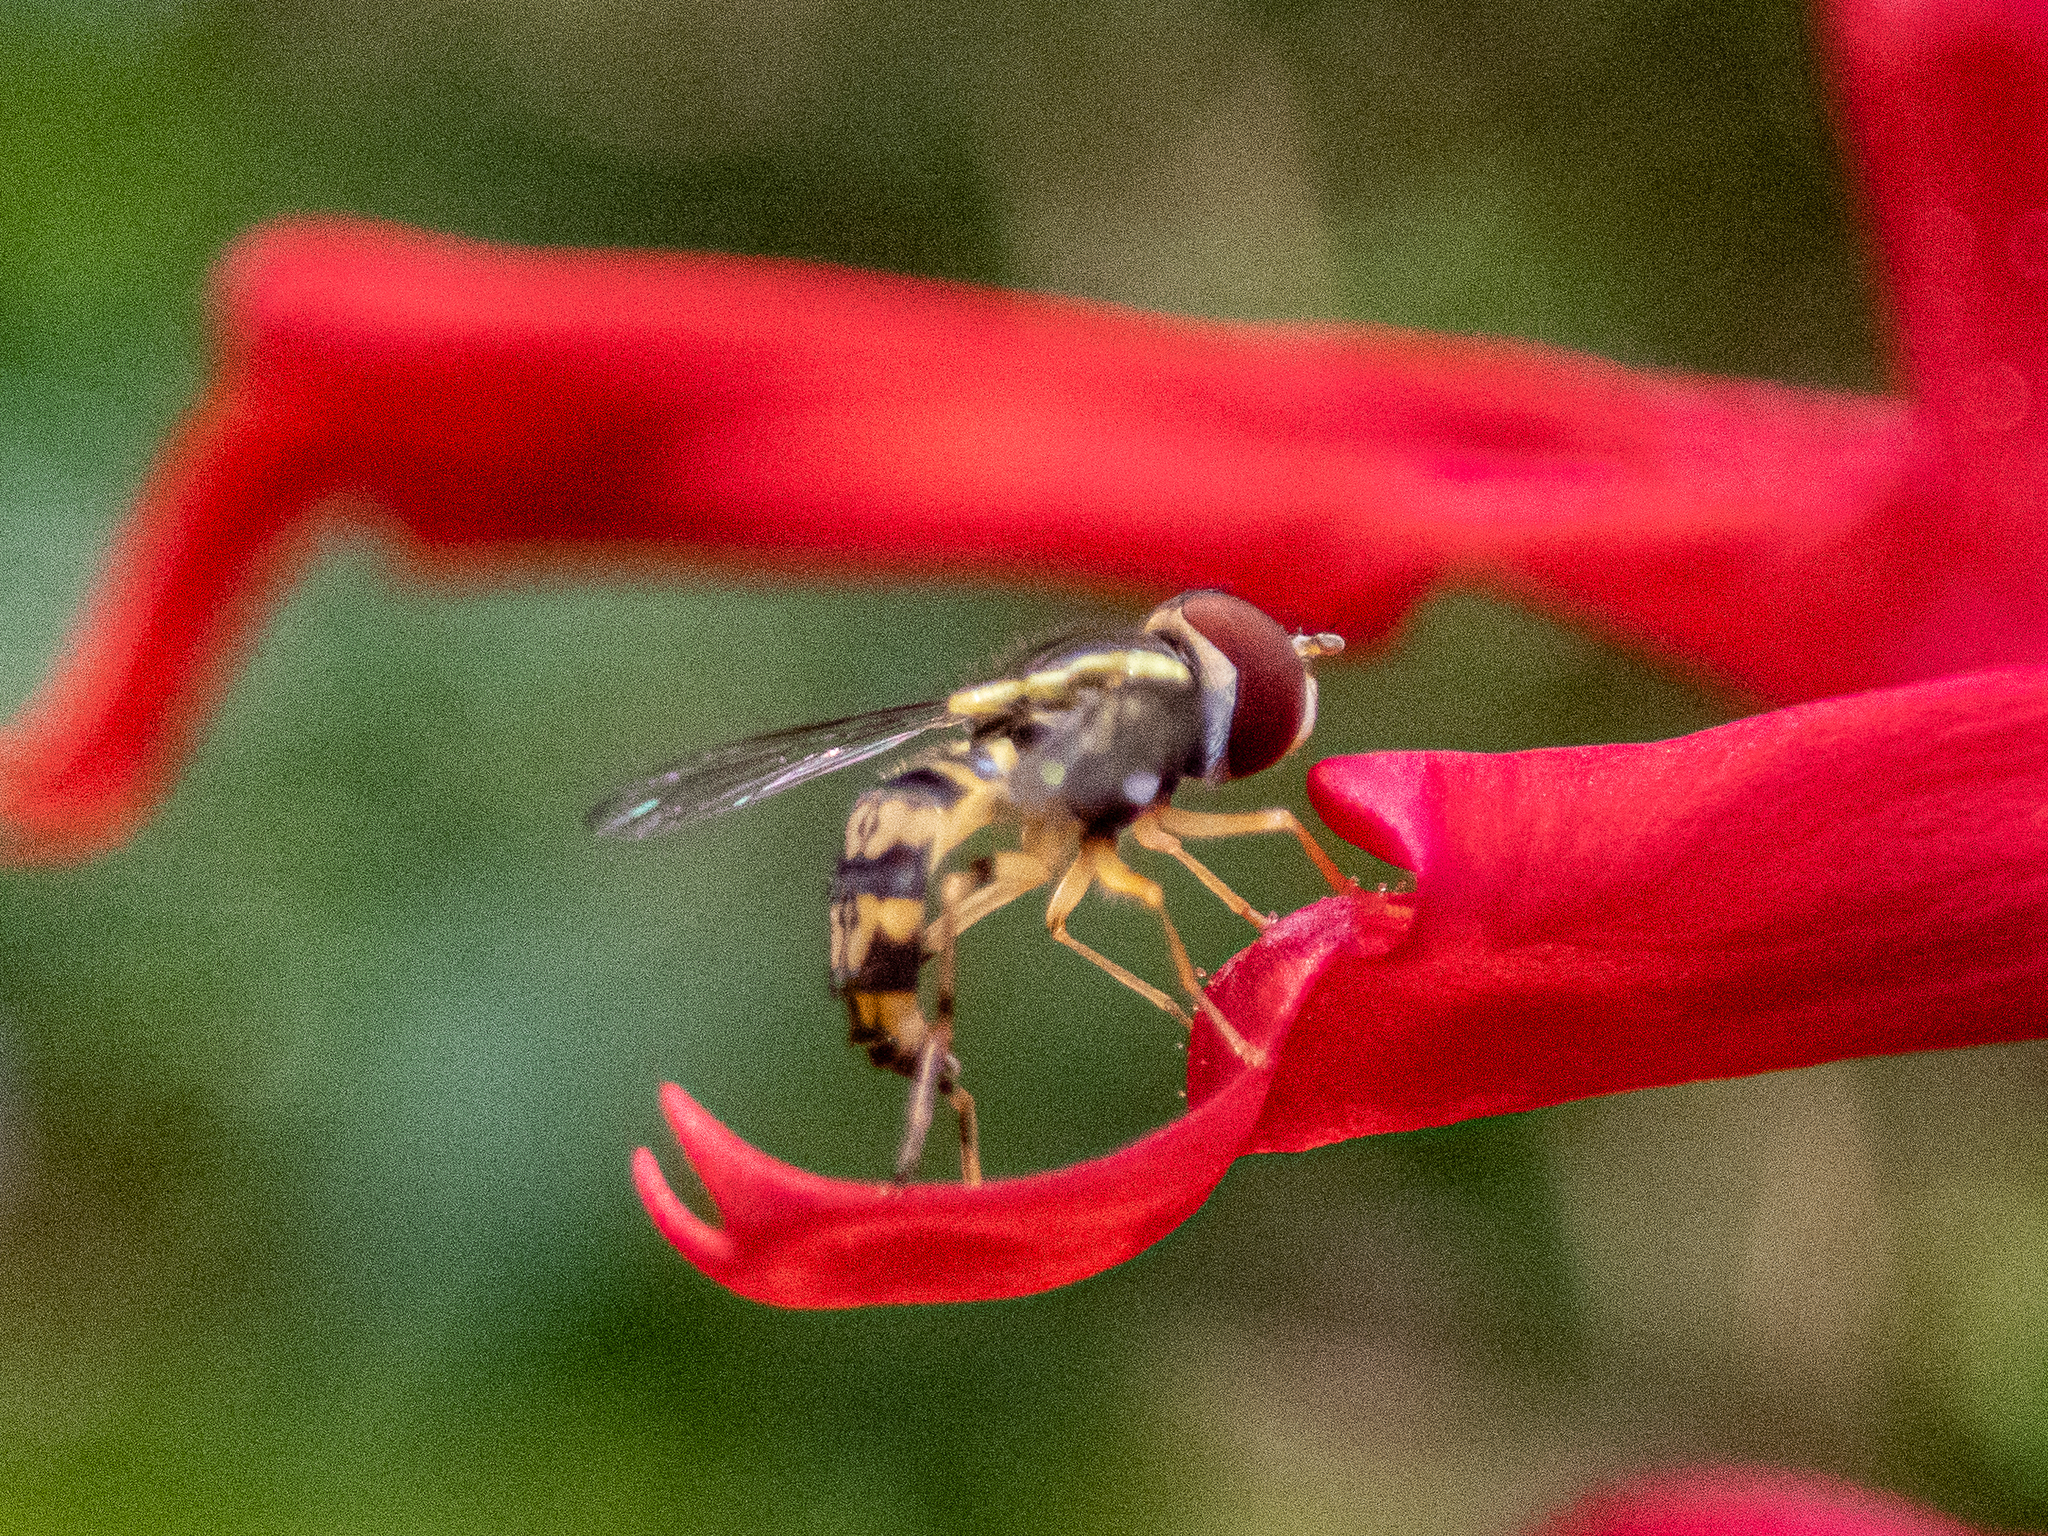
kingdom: Animalia
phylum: Arthropoda
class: Insecta
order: Diptera
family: Syrphidae
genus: Toxomerus
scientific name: Toxomerus geminatus
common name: Eastern calligrapher
